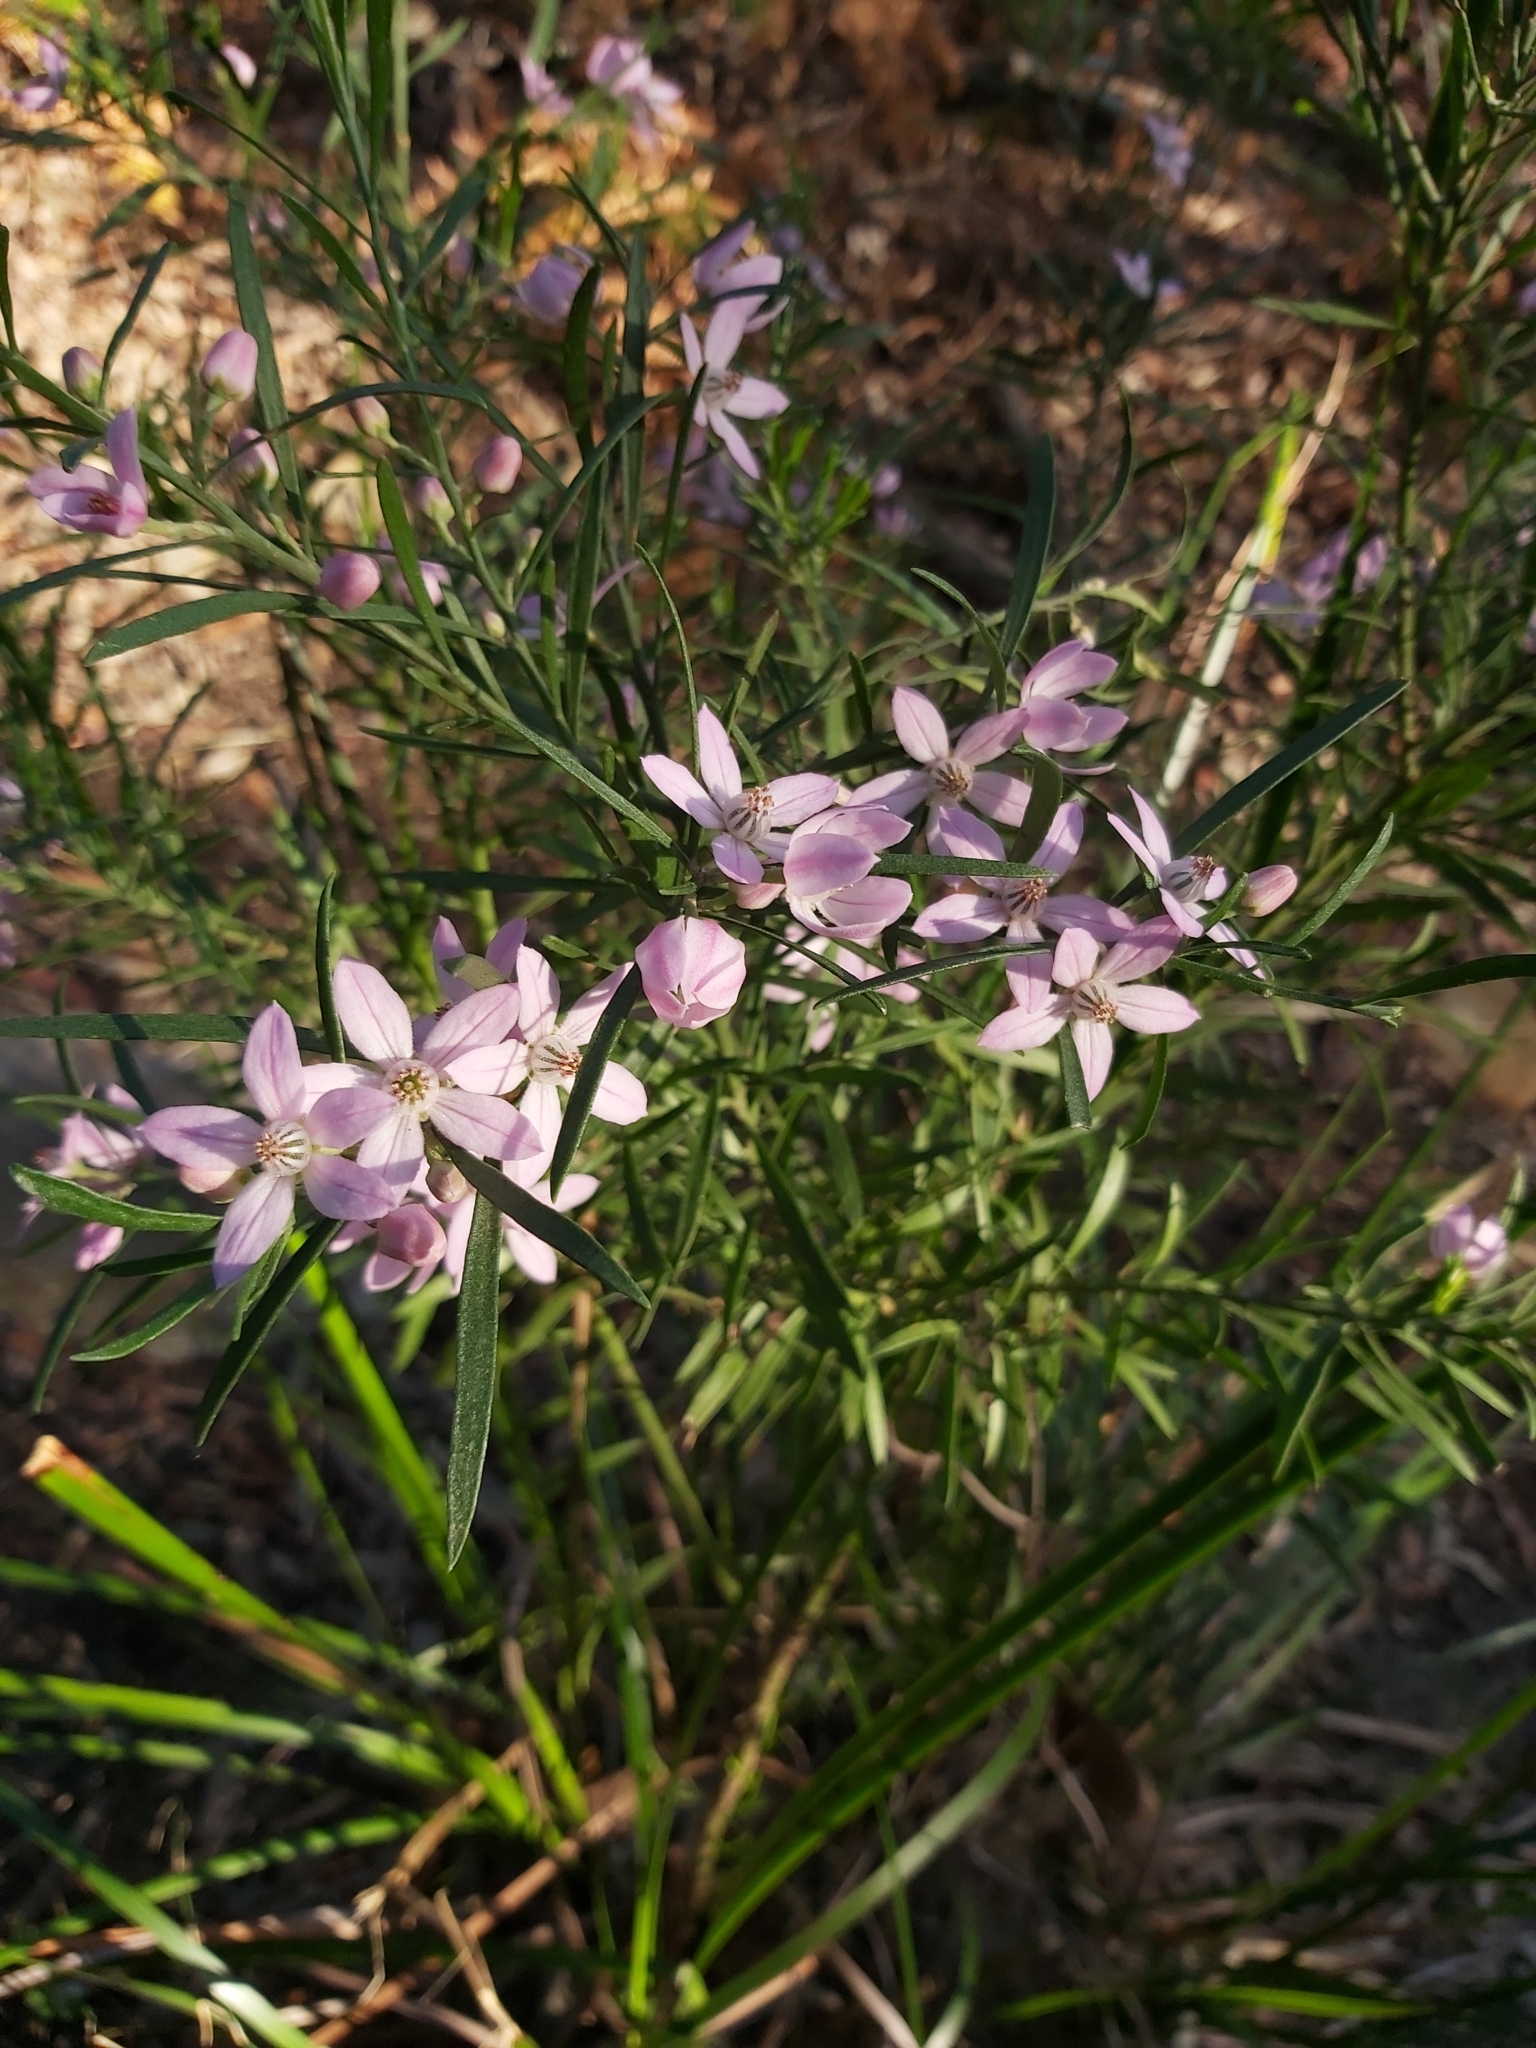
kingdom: Plantae
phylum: Tracheophyta
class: Magnoliopsida
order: Sapindales
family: Rutaceae
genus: Eriostemon
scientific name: Eriostemon australasius
